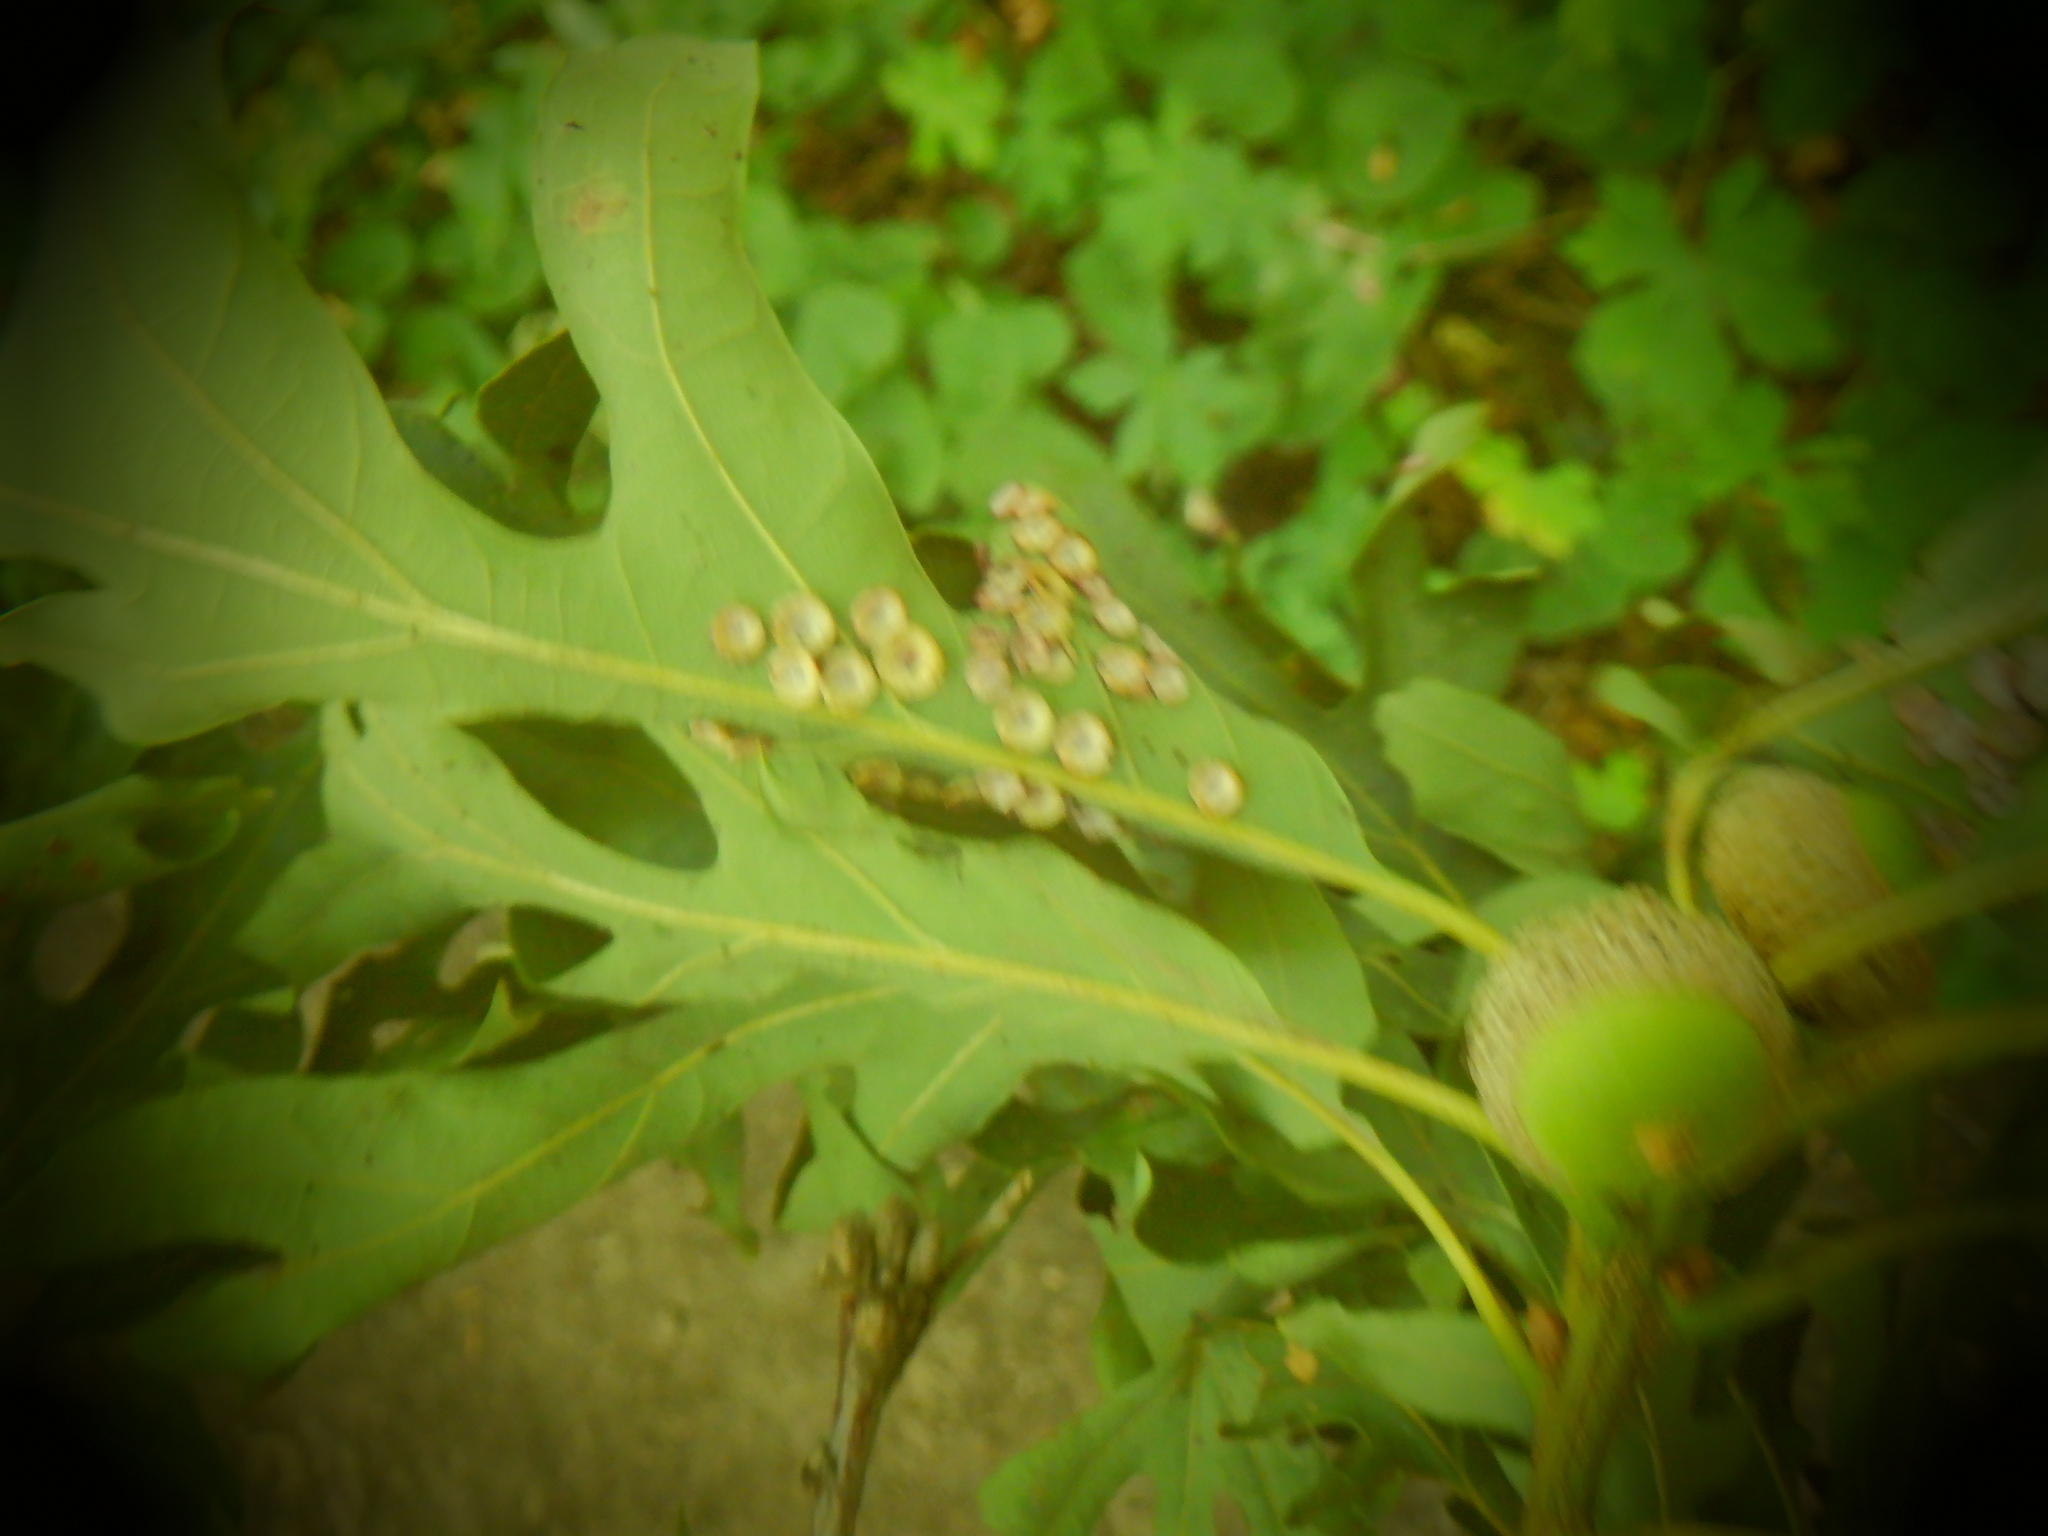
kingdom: Animalia
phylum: Arthropoda
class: Insecta
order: Hymenoptera
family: Cynipidae
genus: Phylloteras
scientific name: Phylloteras poculum
